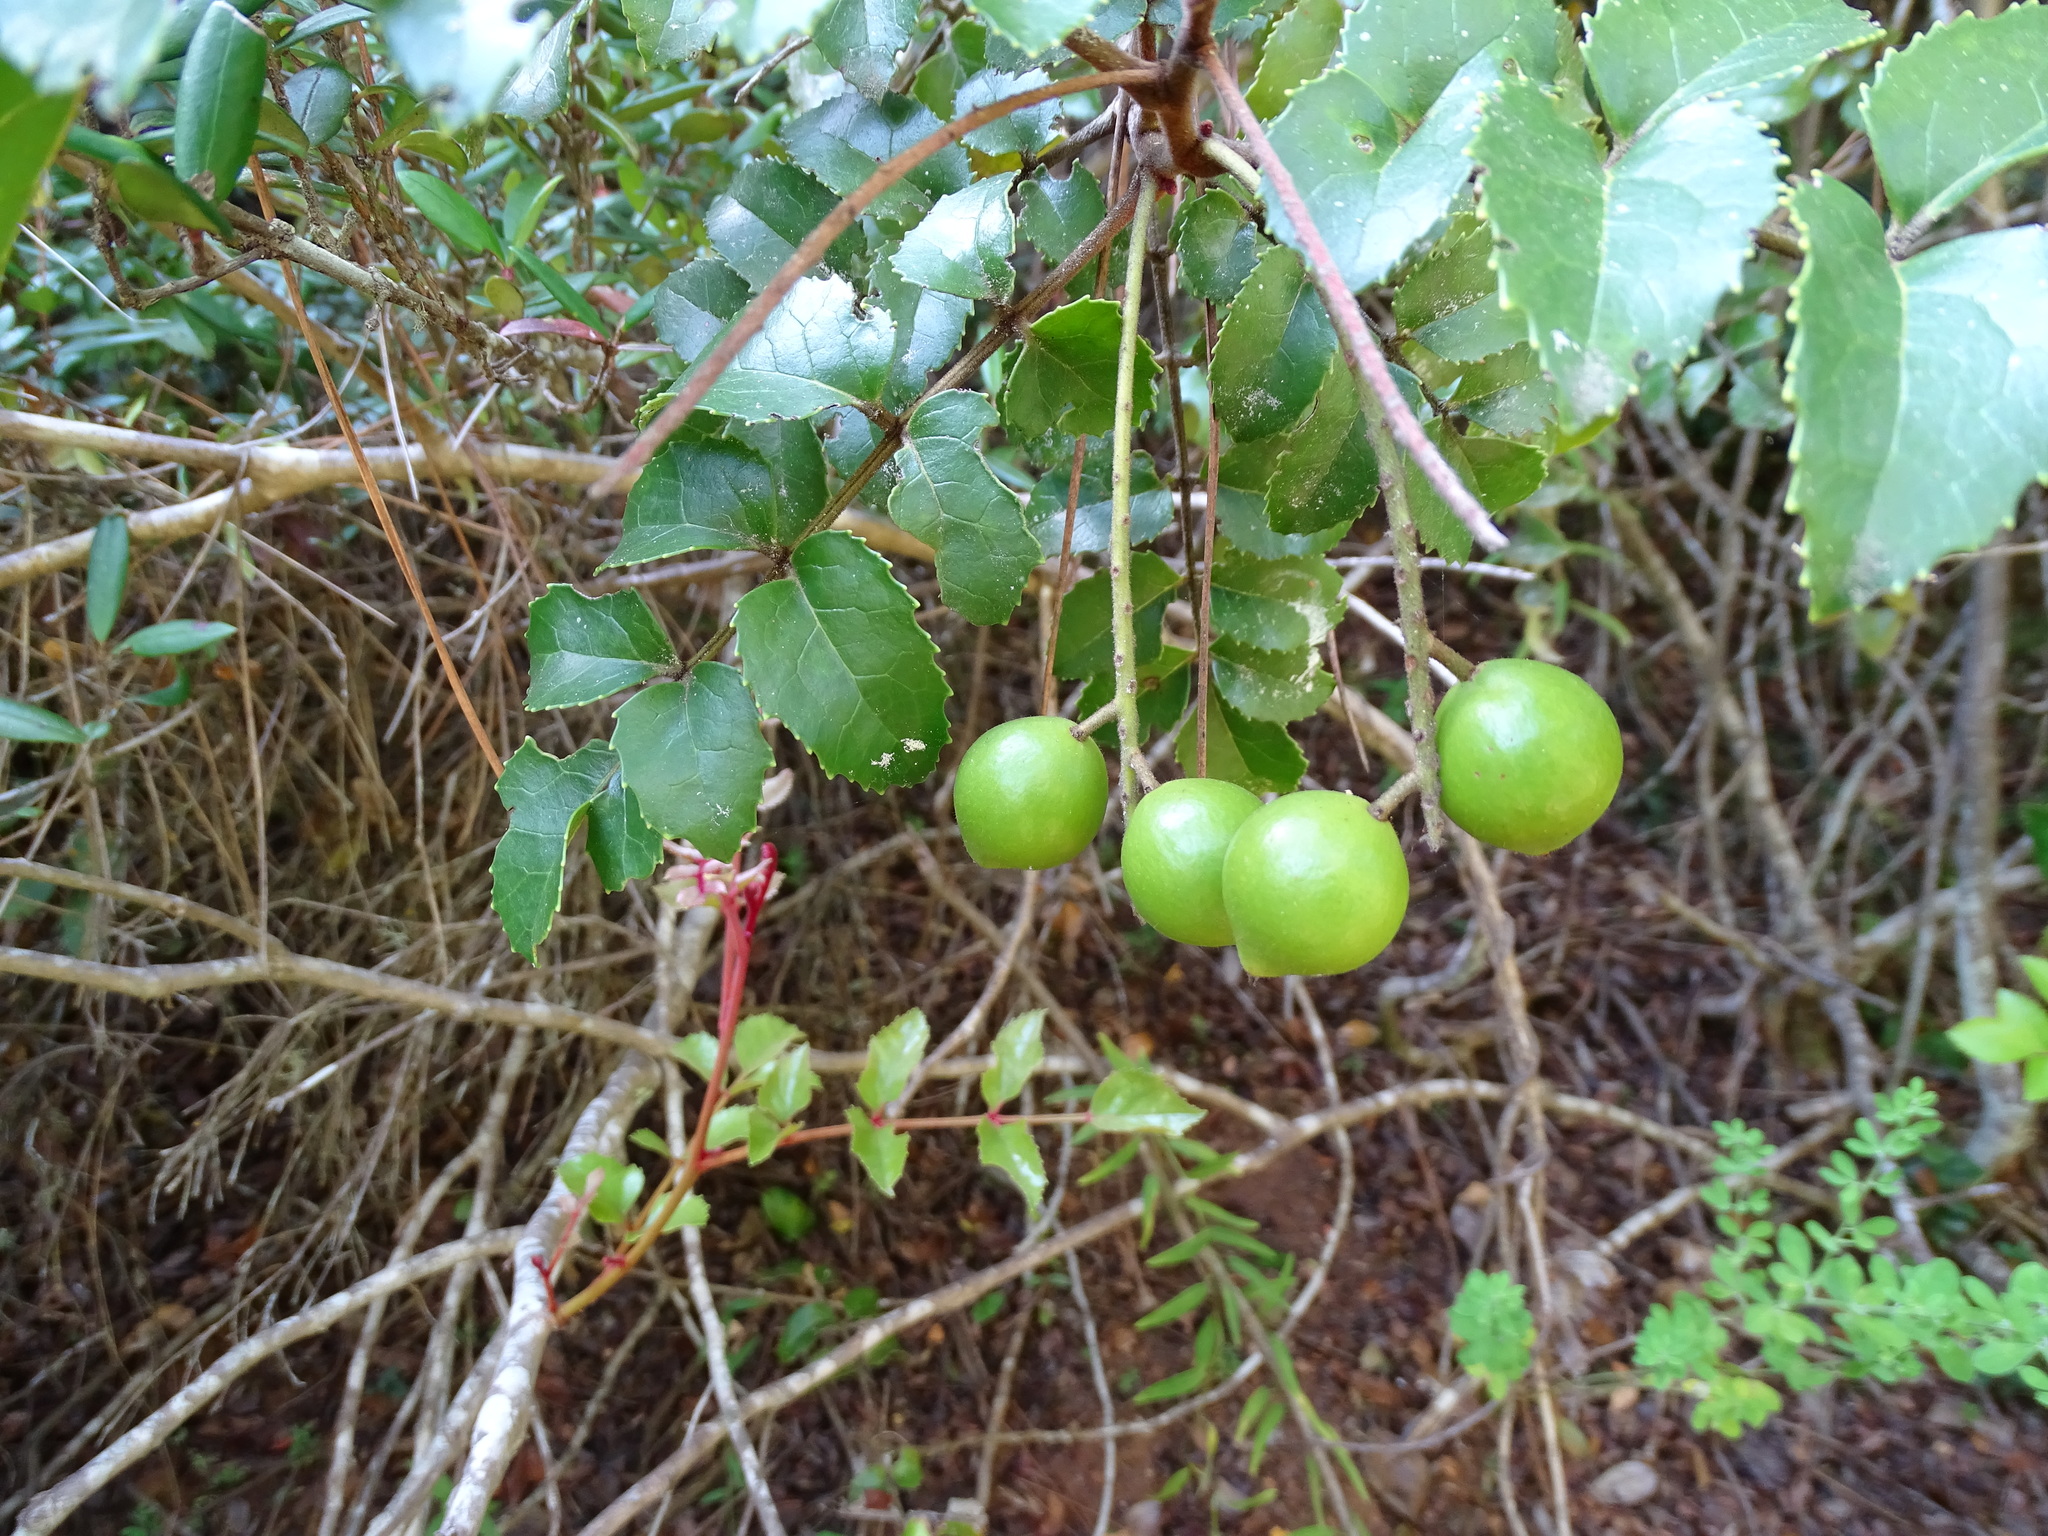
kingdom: Plantae
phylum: Tracheophyta
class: Magnoliopsida
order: Proteales
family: Proteaceae
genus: Gevuina
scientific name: Gevuina avellana
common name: Chilean hazel
